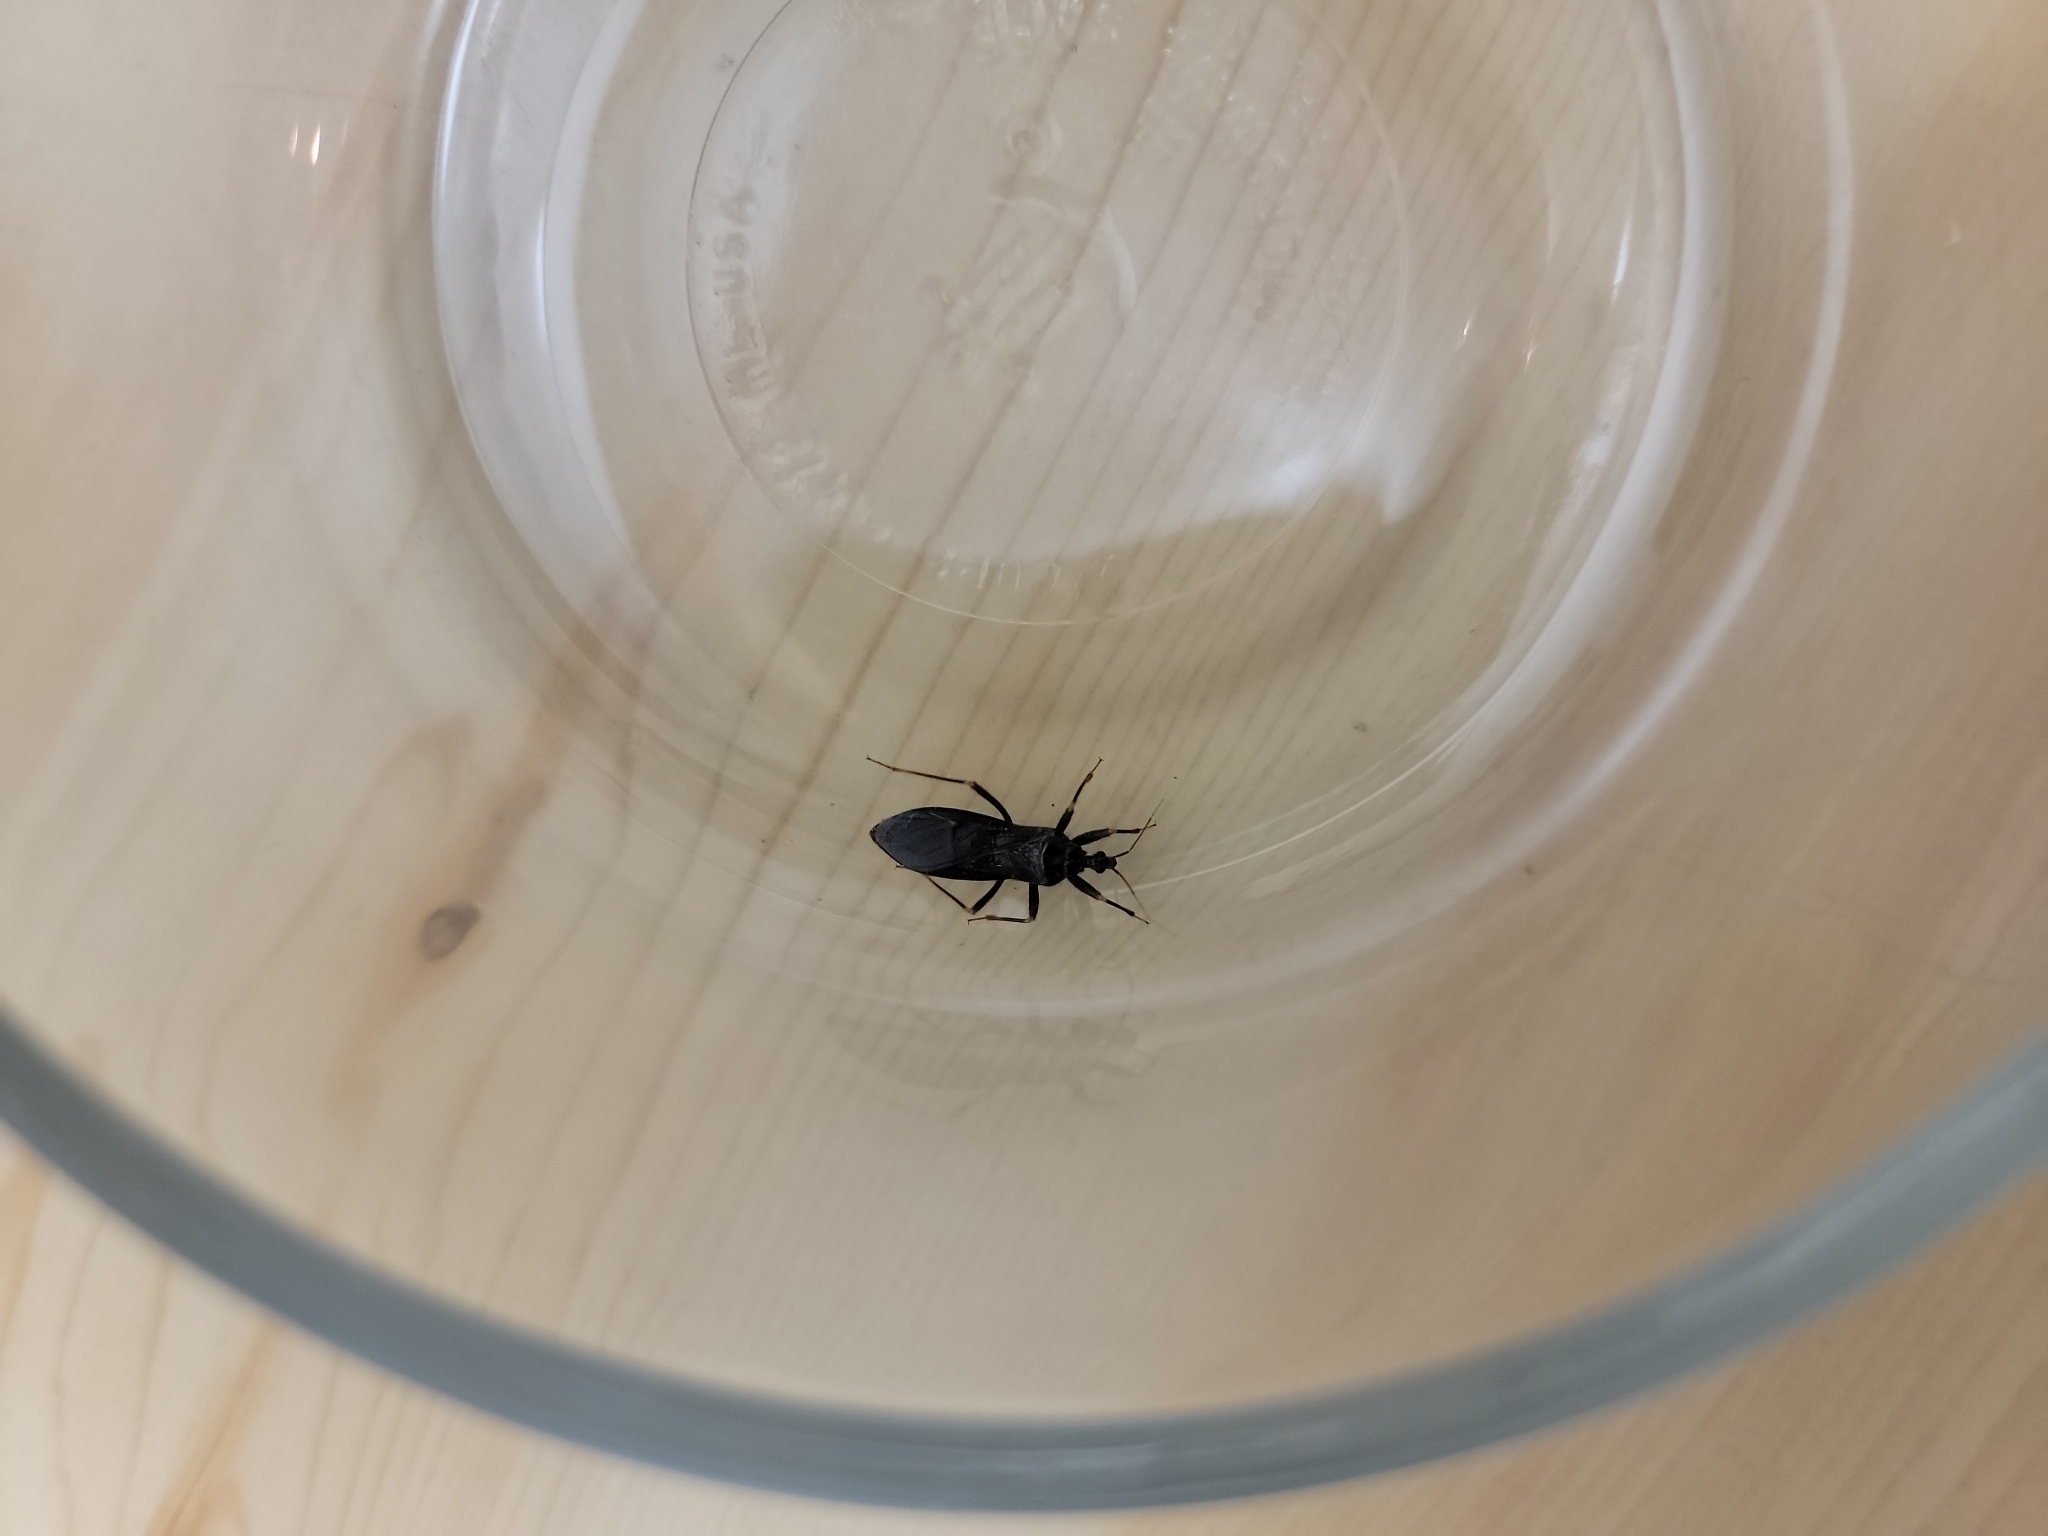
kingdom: Animalia
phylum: Arthropoda
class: Insecta
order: Hemiptera
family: Reduviidae
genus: Reduvius
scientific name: Reduvius personatus
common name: Masked hunter
